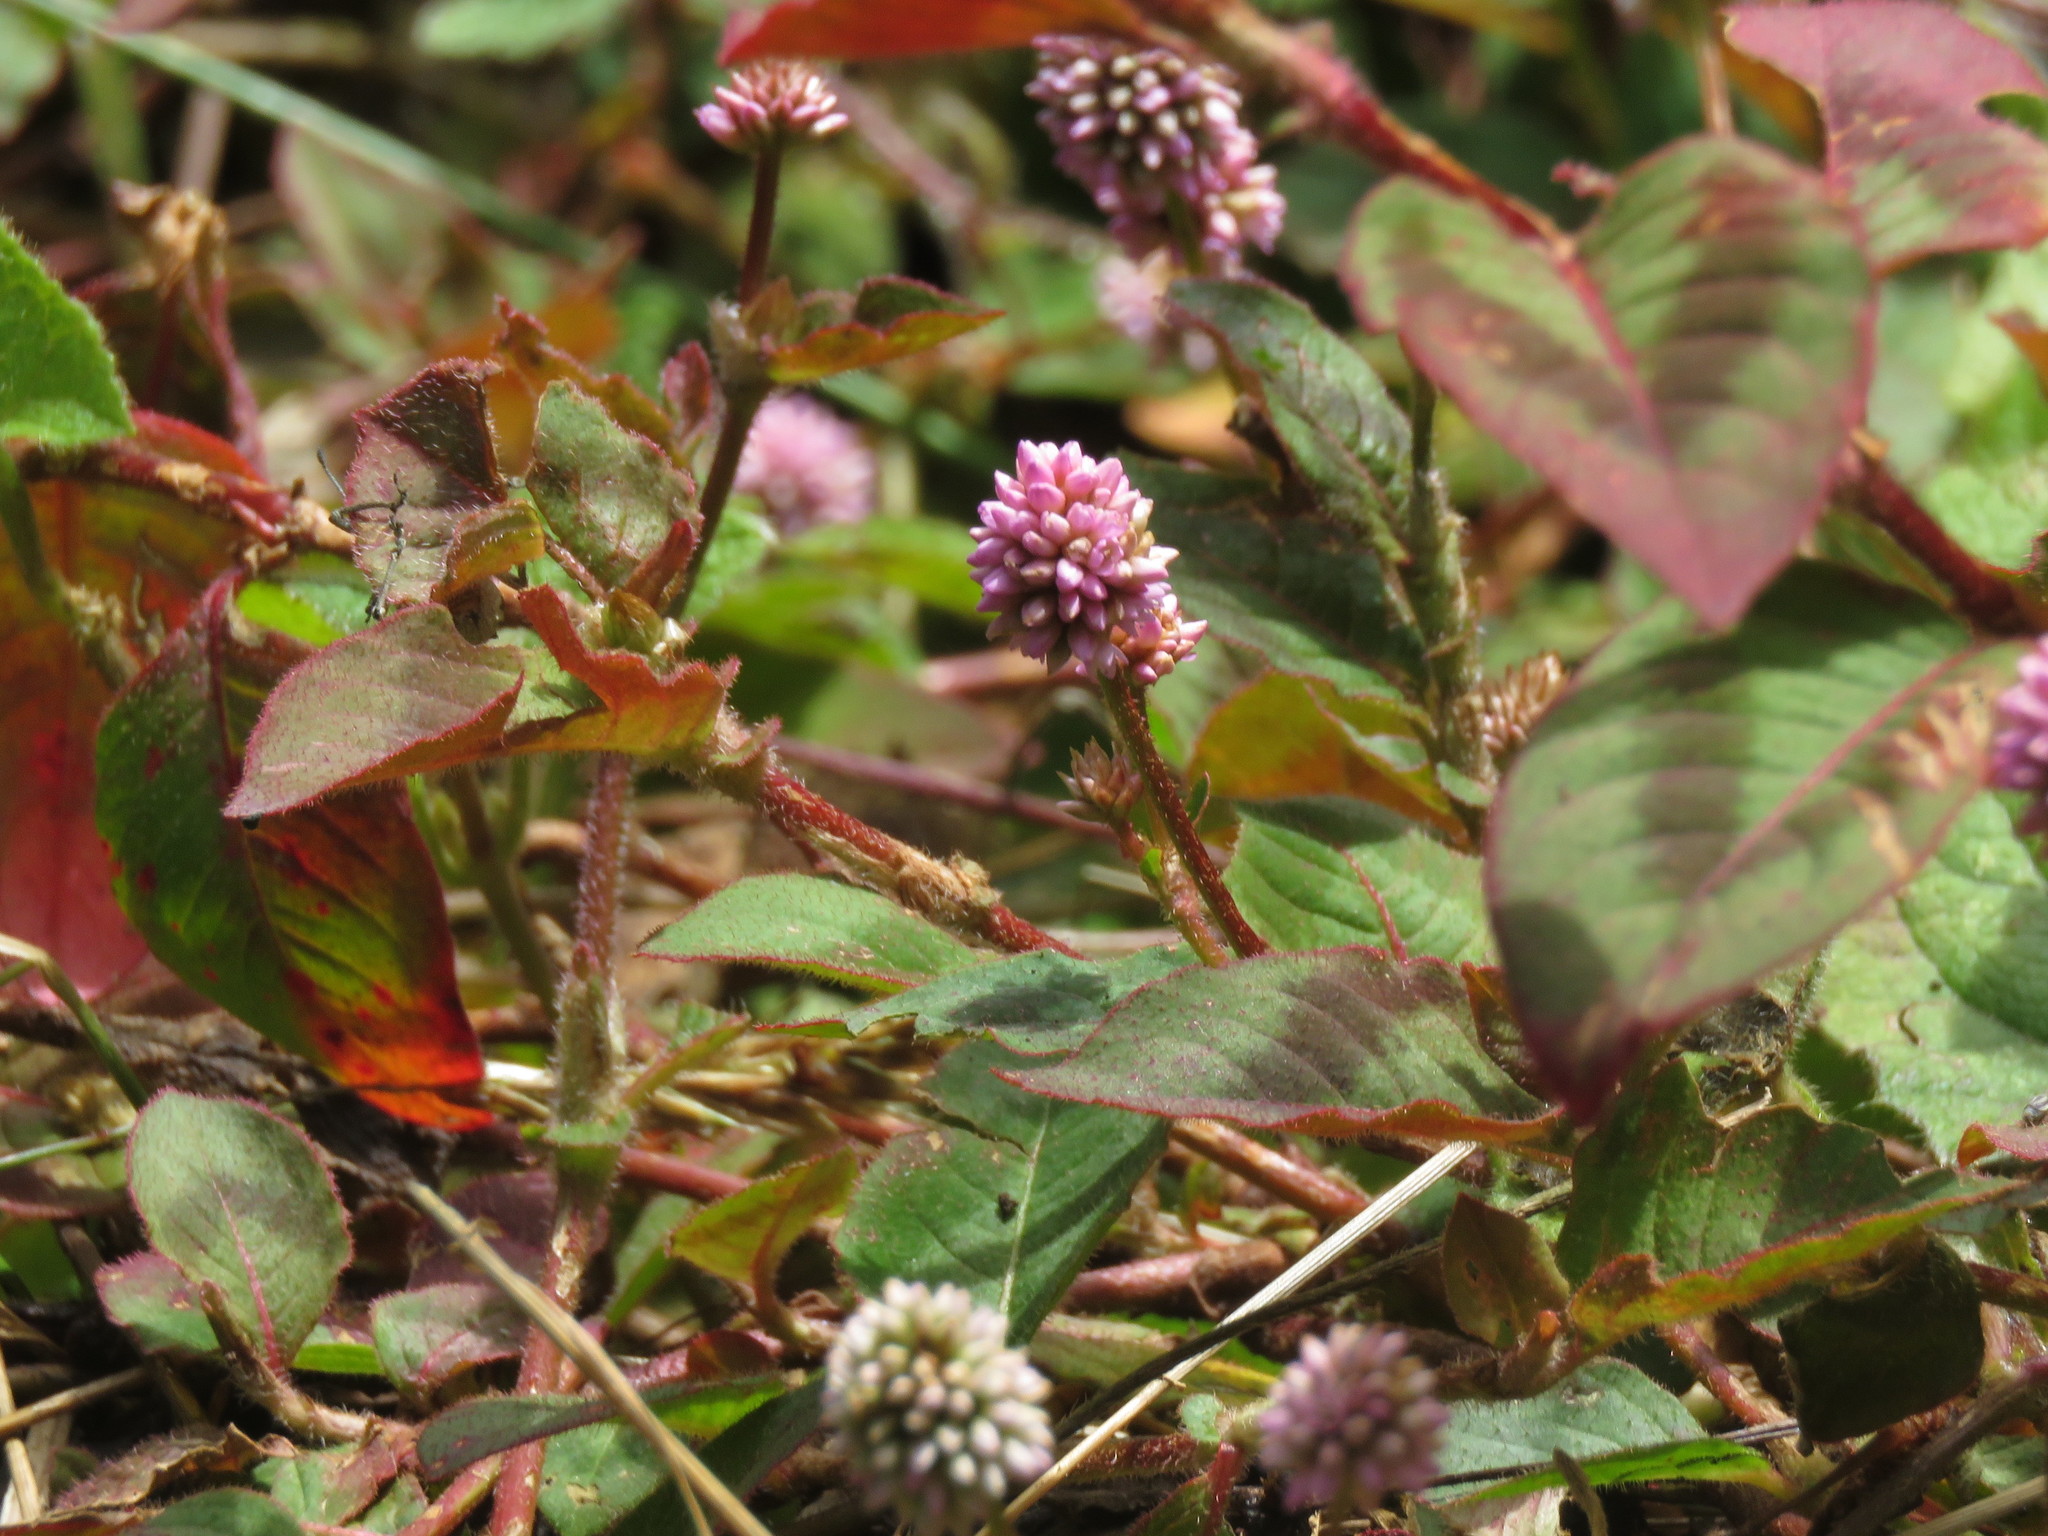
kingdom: Plantae
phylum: Tracheophyta
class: Magnoliopsida
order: Caryophyllales
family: Polygonaceae
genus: Persicaria
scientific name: Persicaria capitata
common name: Pinkhead smartweed
